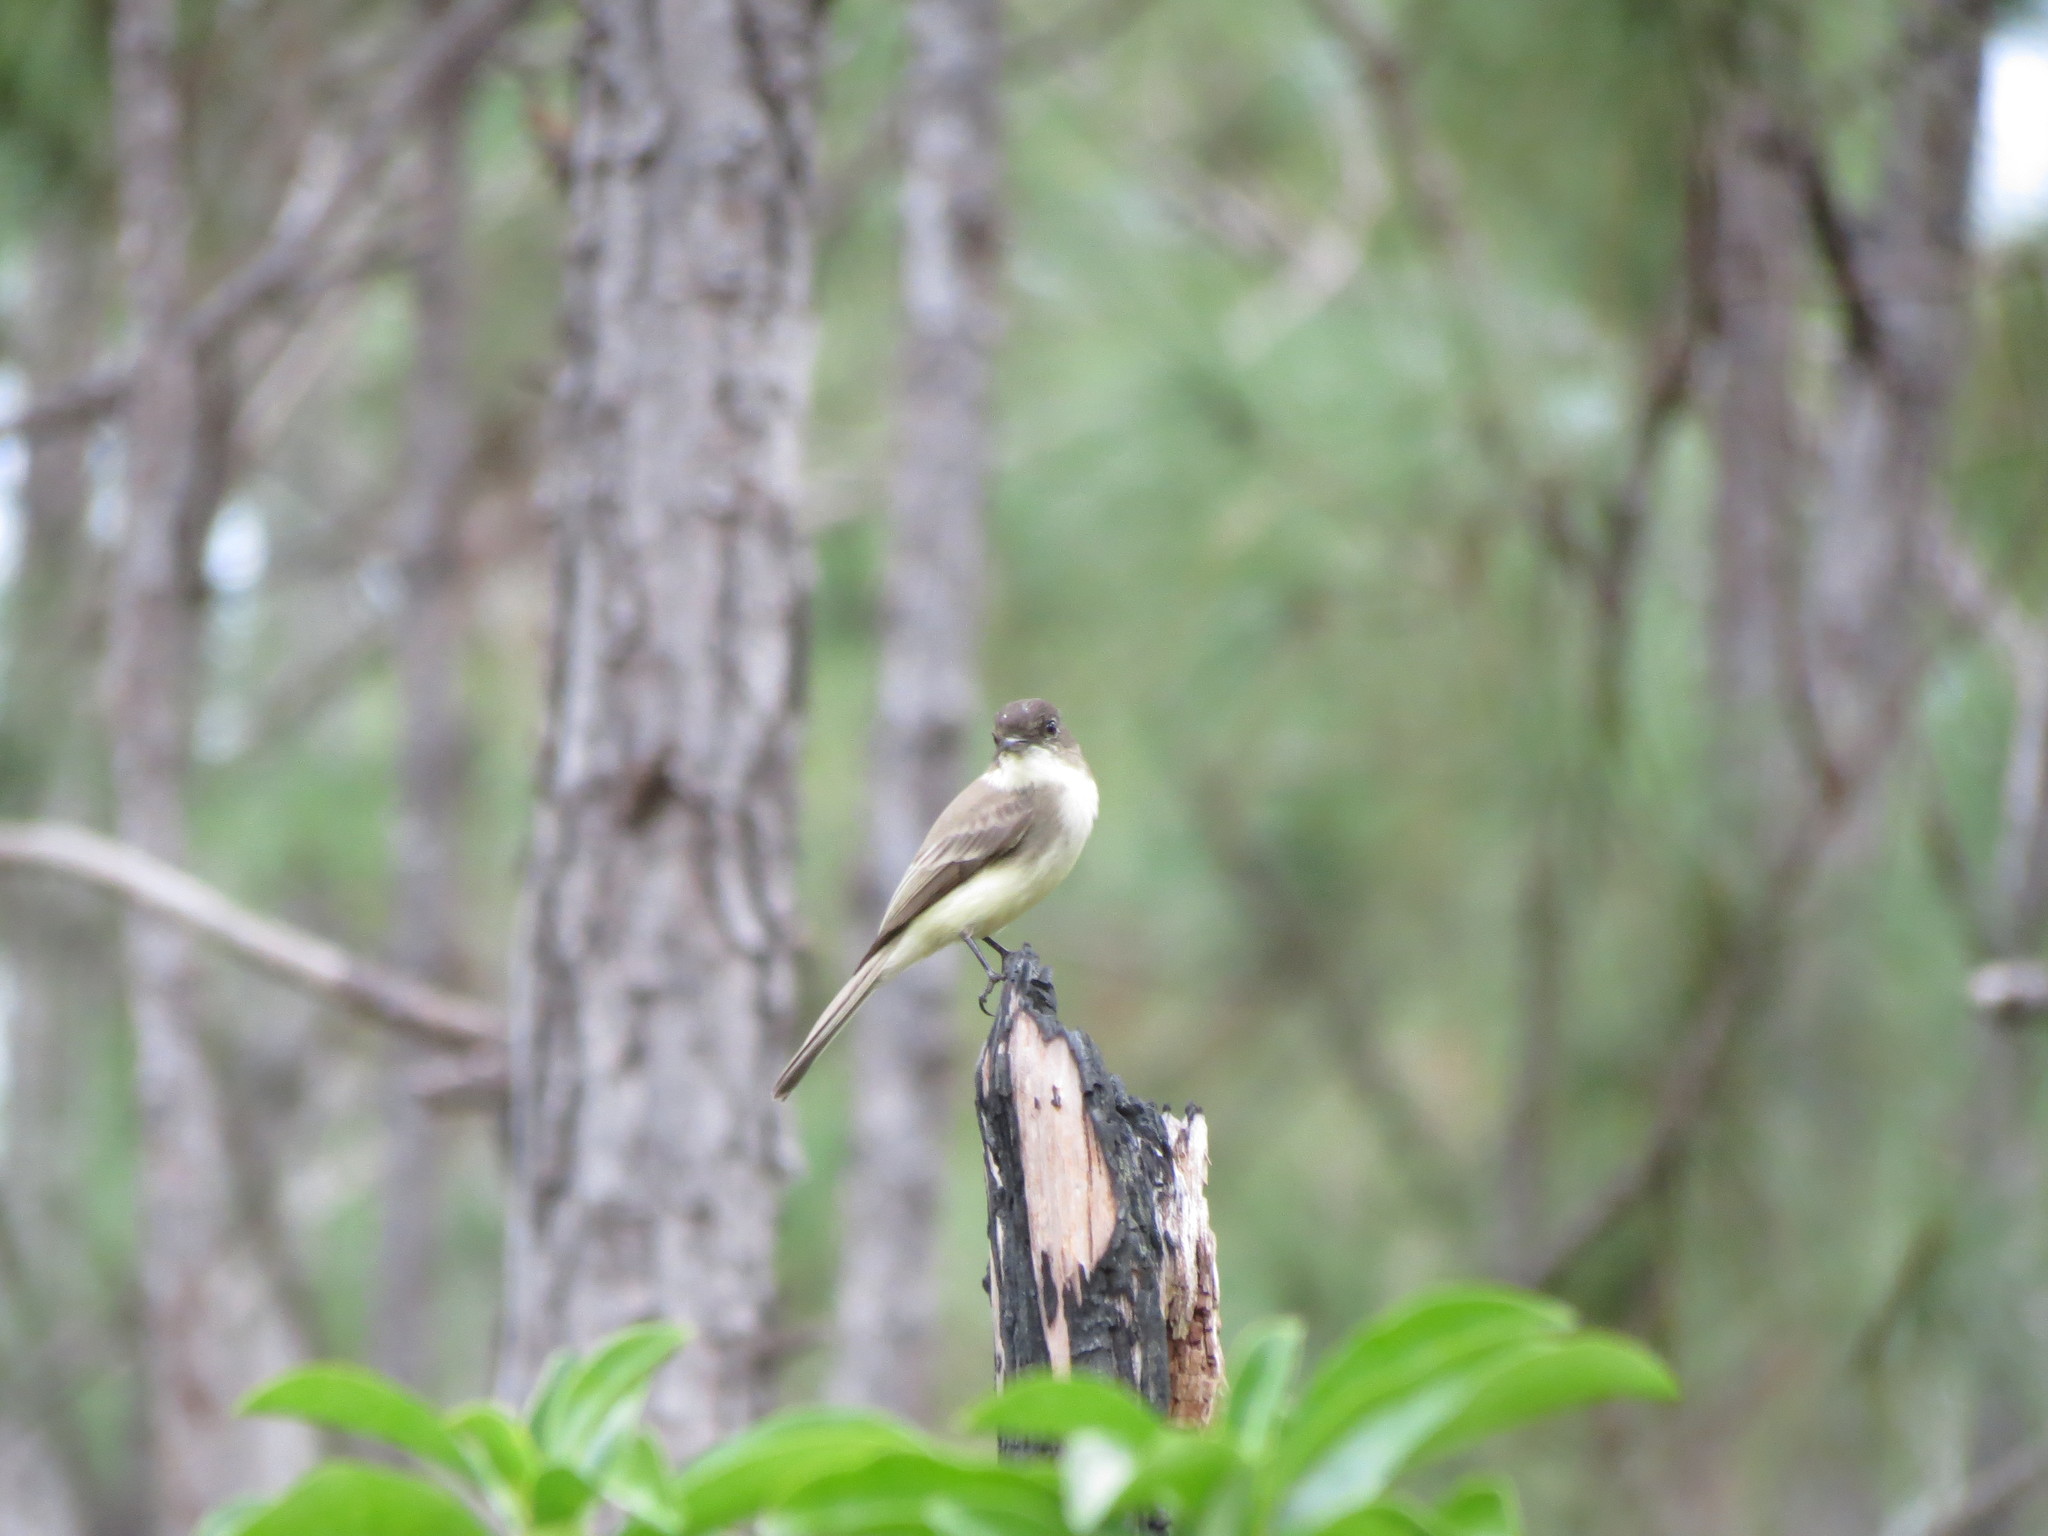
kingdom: Animalia
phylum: Chordata
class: Aves
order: Passeriformes
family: Tyrannidae
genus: Sayornis
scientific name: Sayornis phoebe
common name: Eastern phoebe
